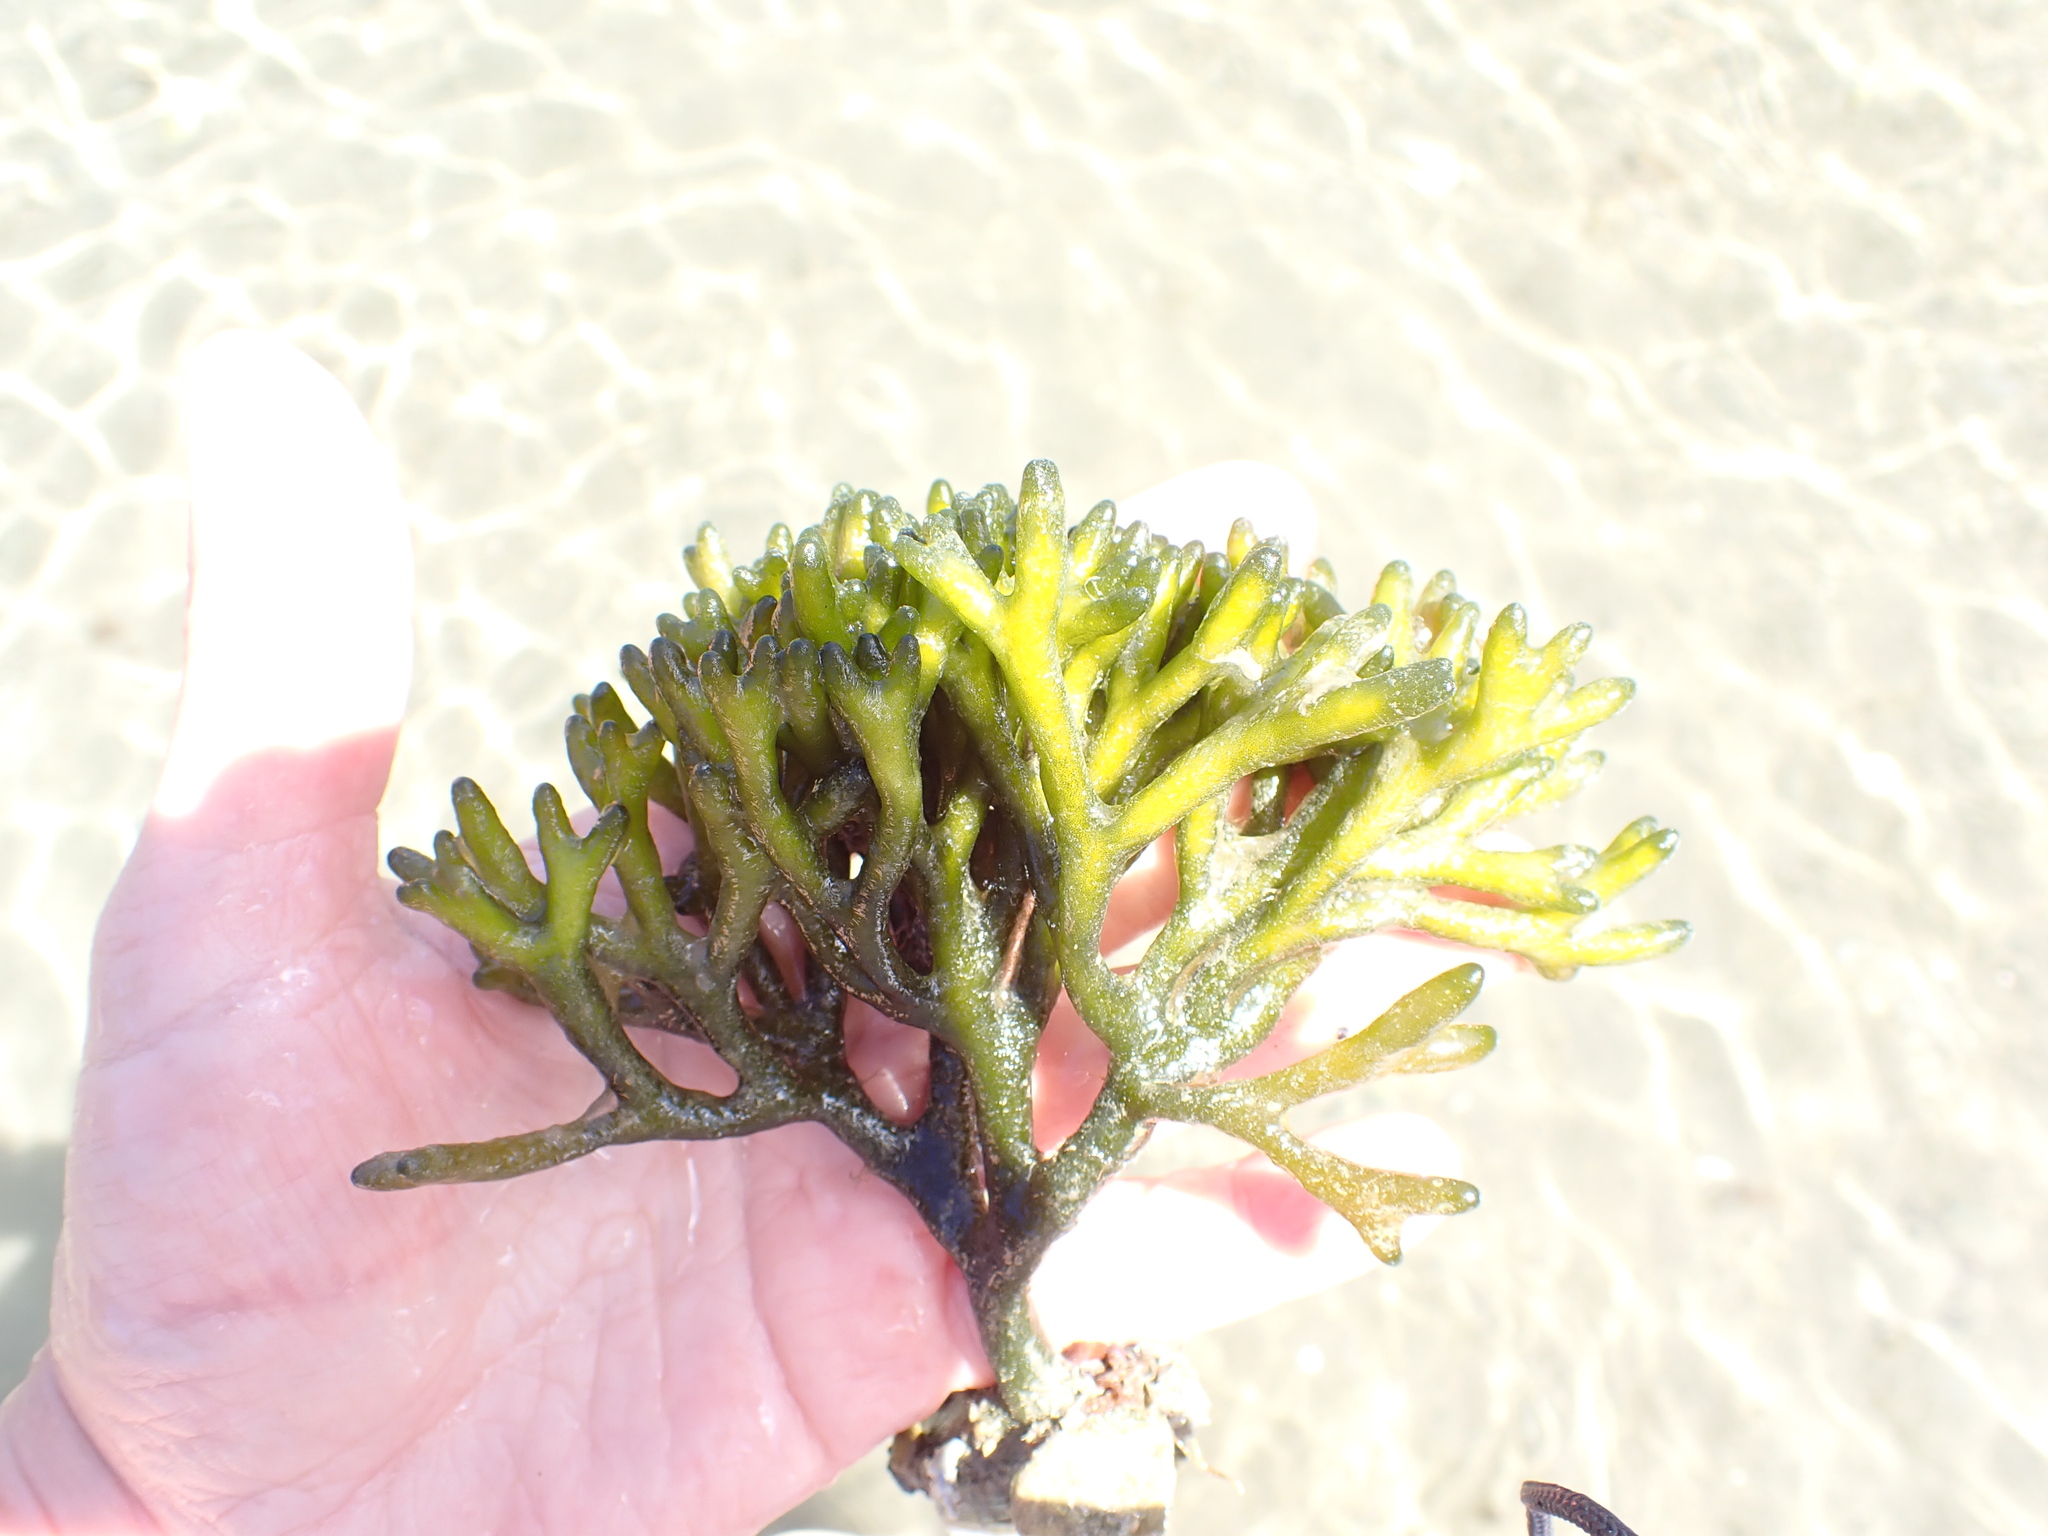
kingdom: Plantae
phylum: Chlorophyta
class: Ulvophyceae
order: Bryopsidales
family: Codiaceae
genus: Codium
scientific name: Codium fragile
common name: Dead man's fingers
